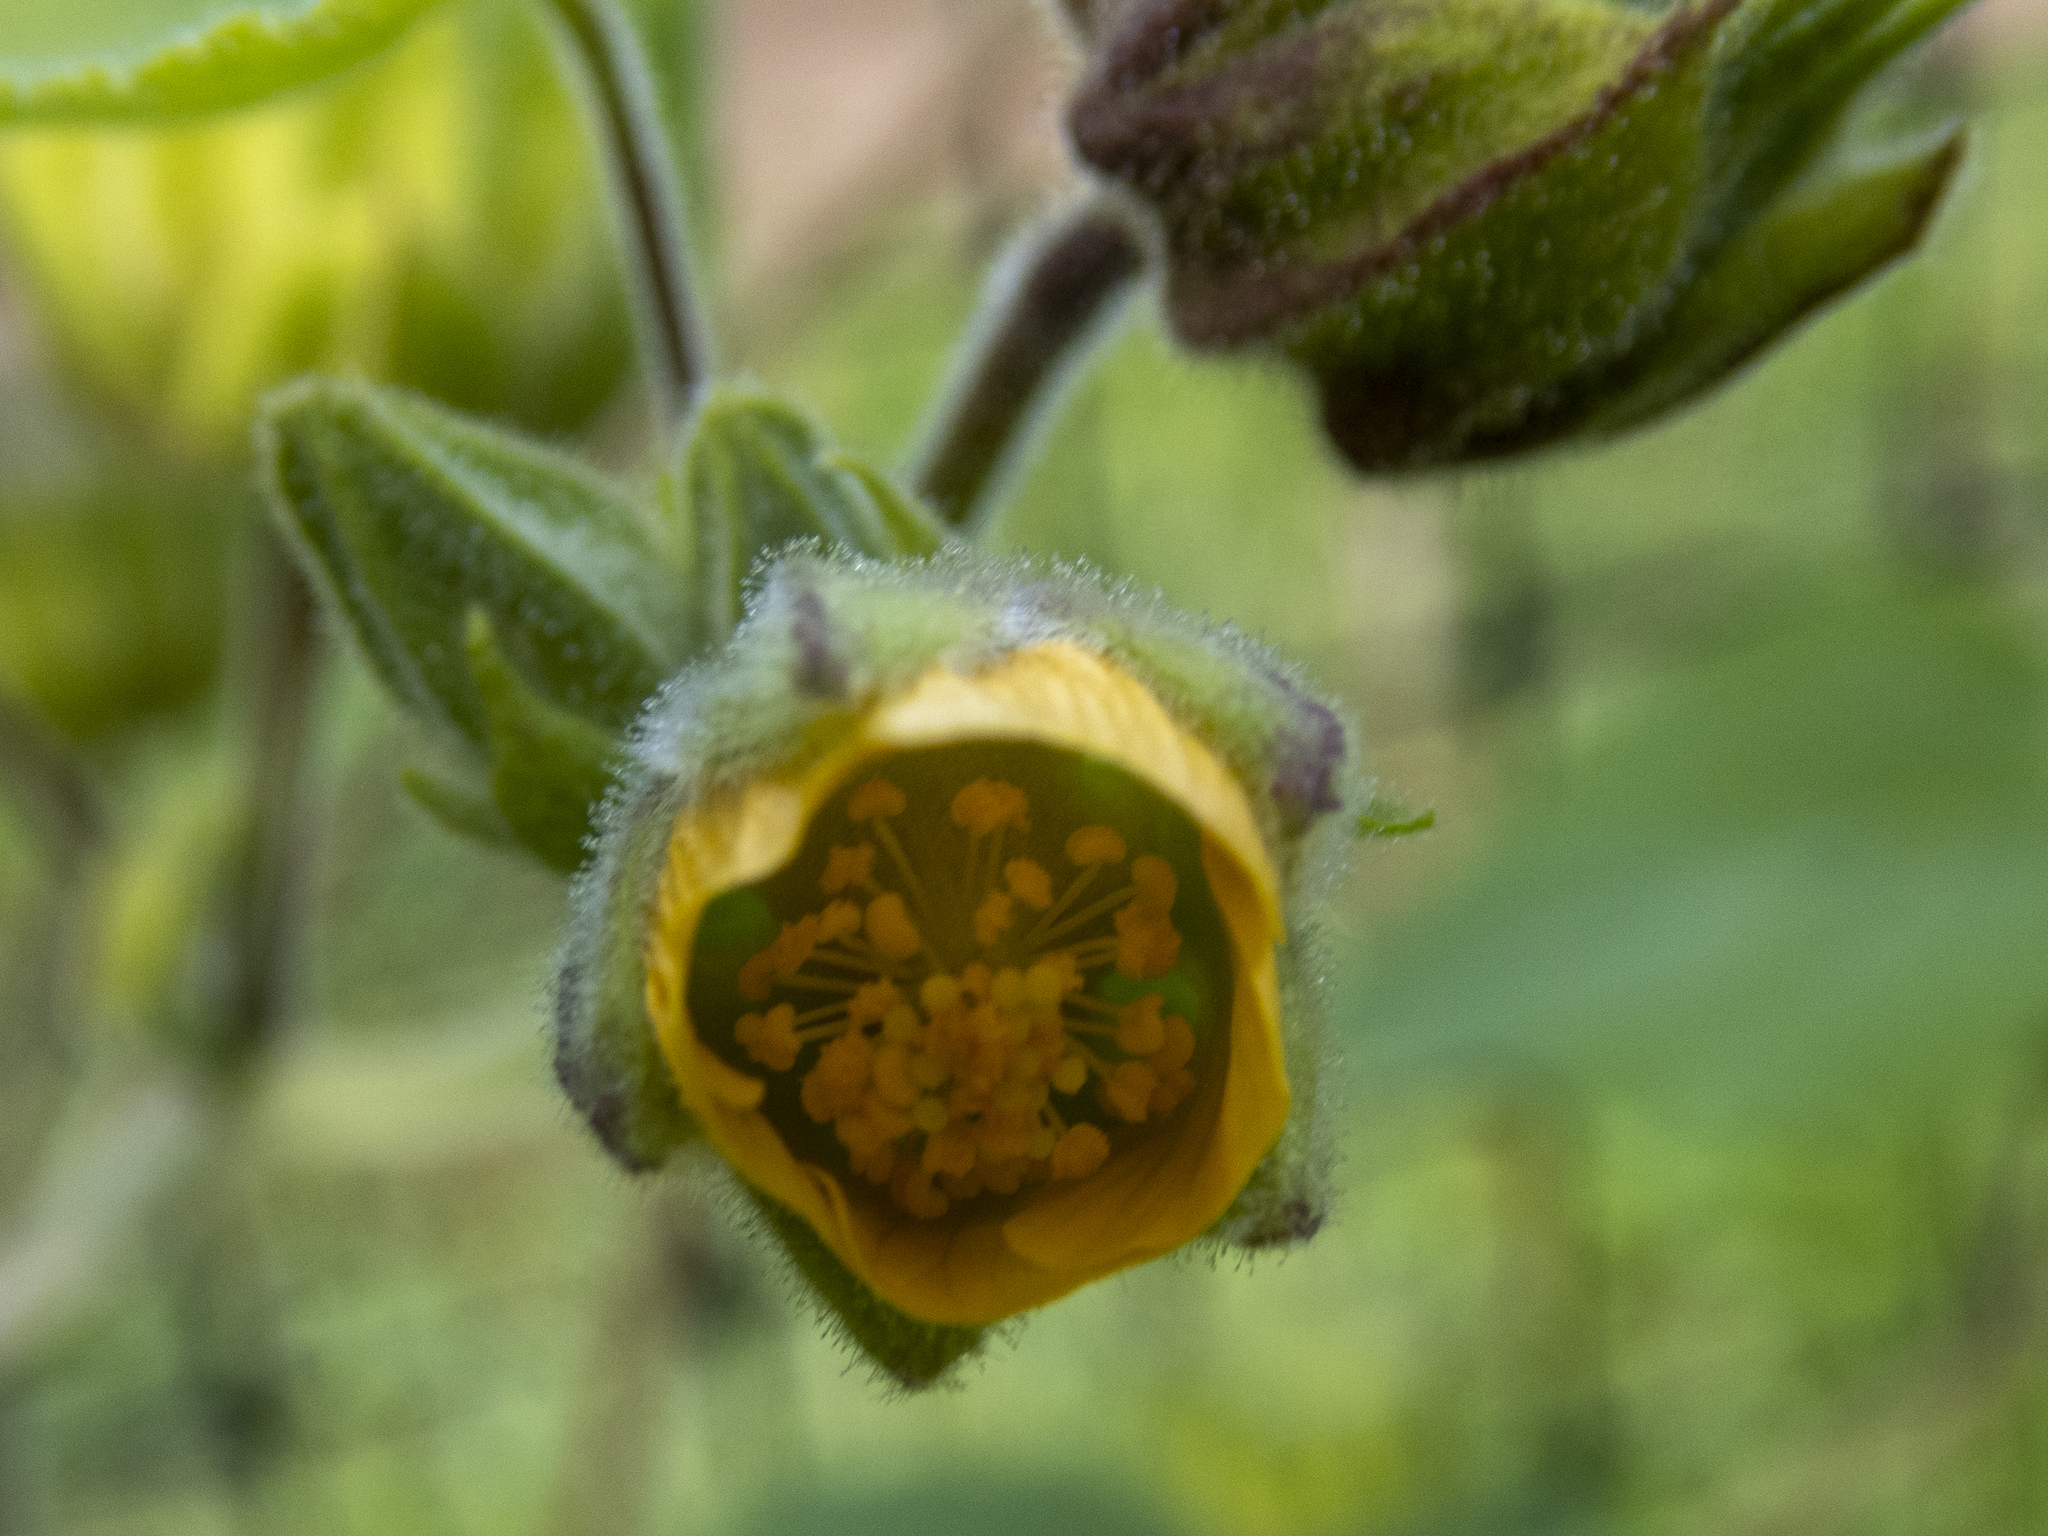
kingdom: Plantae
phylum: Tracheophyta
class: Magnoliopsida
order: Malvales
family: Malvaceae
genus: Abutilon
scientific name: Abutilon theophrasti
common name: Velvetleaf
